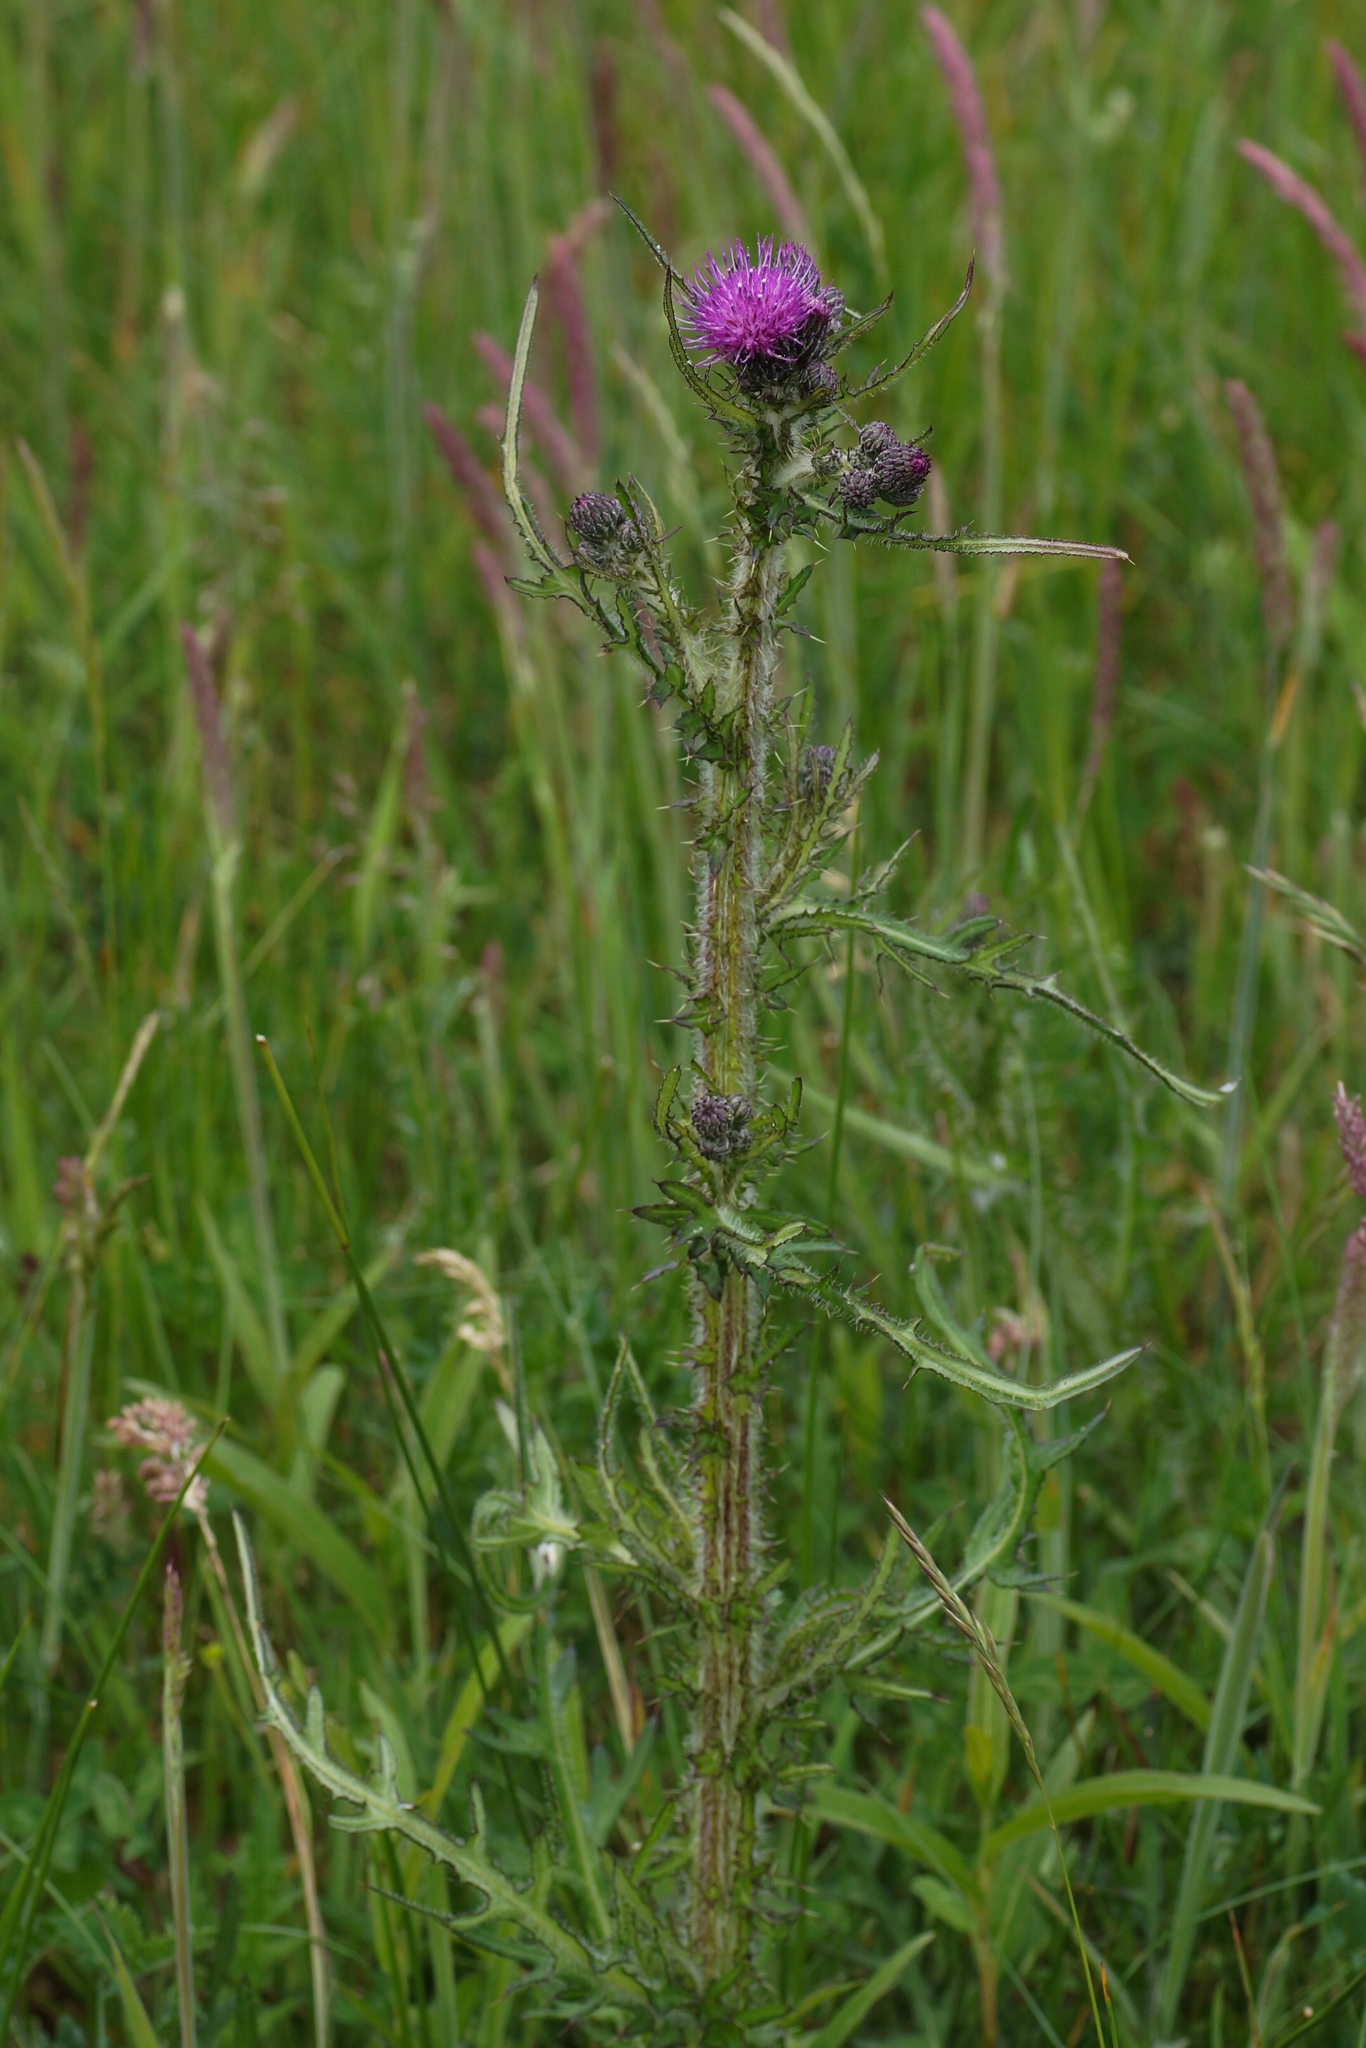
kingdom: Plantae
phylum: Tracheophyta
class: Magnoliopsida
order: Asterales
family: Asteraceae
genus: Cirsium
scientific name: Cirsium palustre
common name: Marsh thistle
